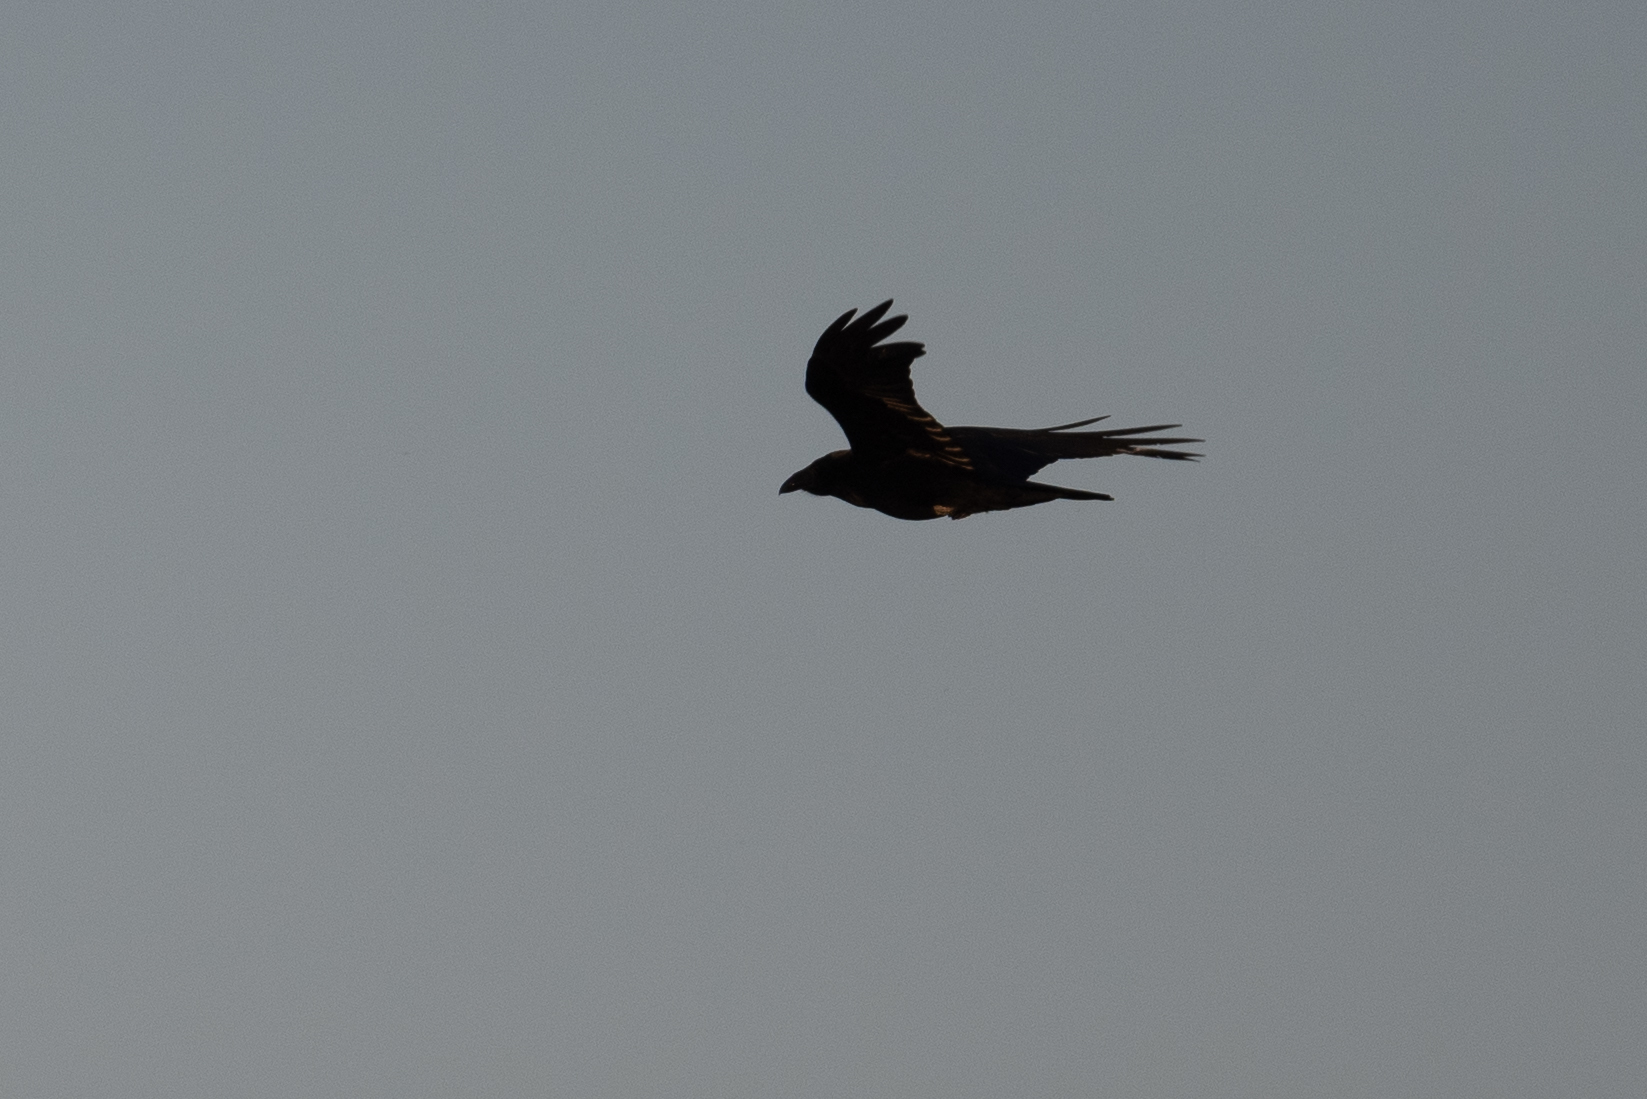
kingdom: Animalia
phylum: Chordata
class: Aves
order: Passeriformes
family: Corvidae
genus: Corvus
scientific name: Corvus corax
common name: Common raven
